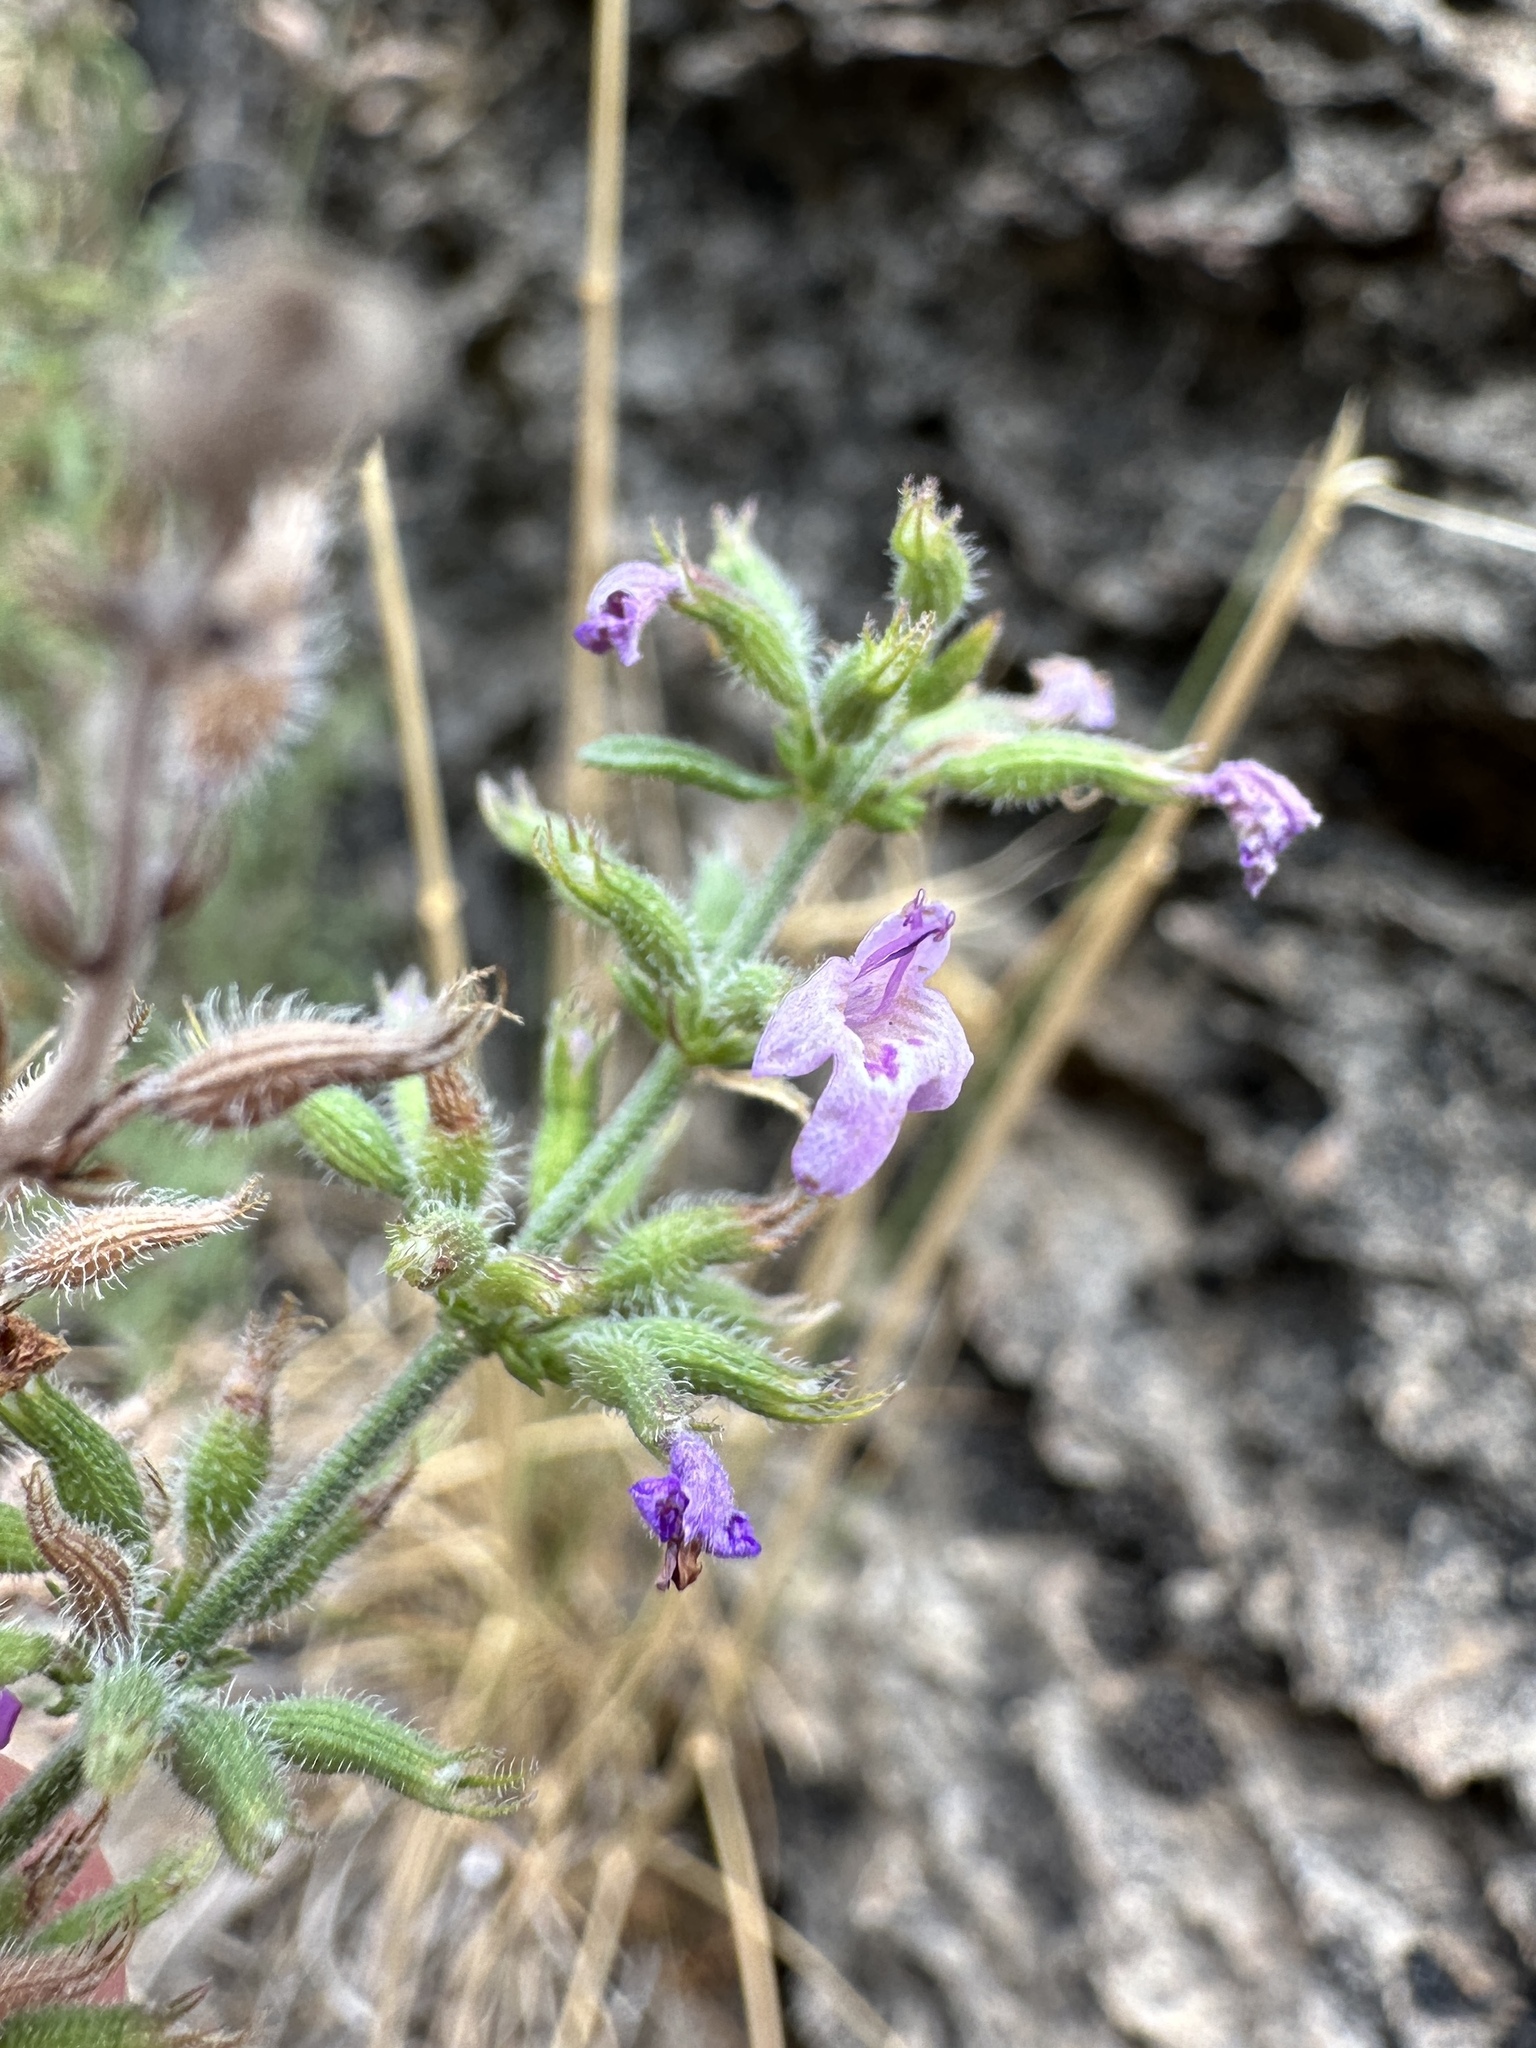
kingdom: Plantae
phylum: Tracheophyta
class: Magnoliopsida
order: Lamiales
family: Lamiaceae
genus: Hedeoma
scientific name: Hedeoma drummondii
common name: New mexico pennyroyal
